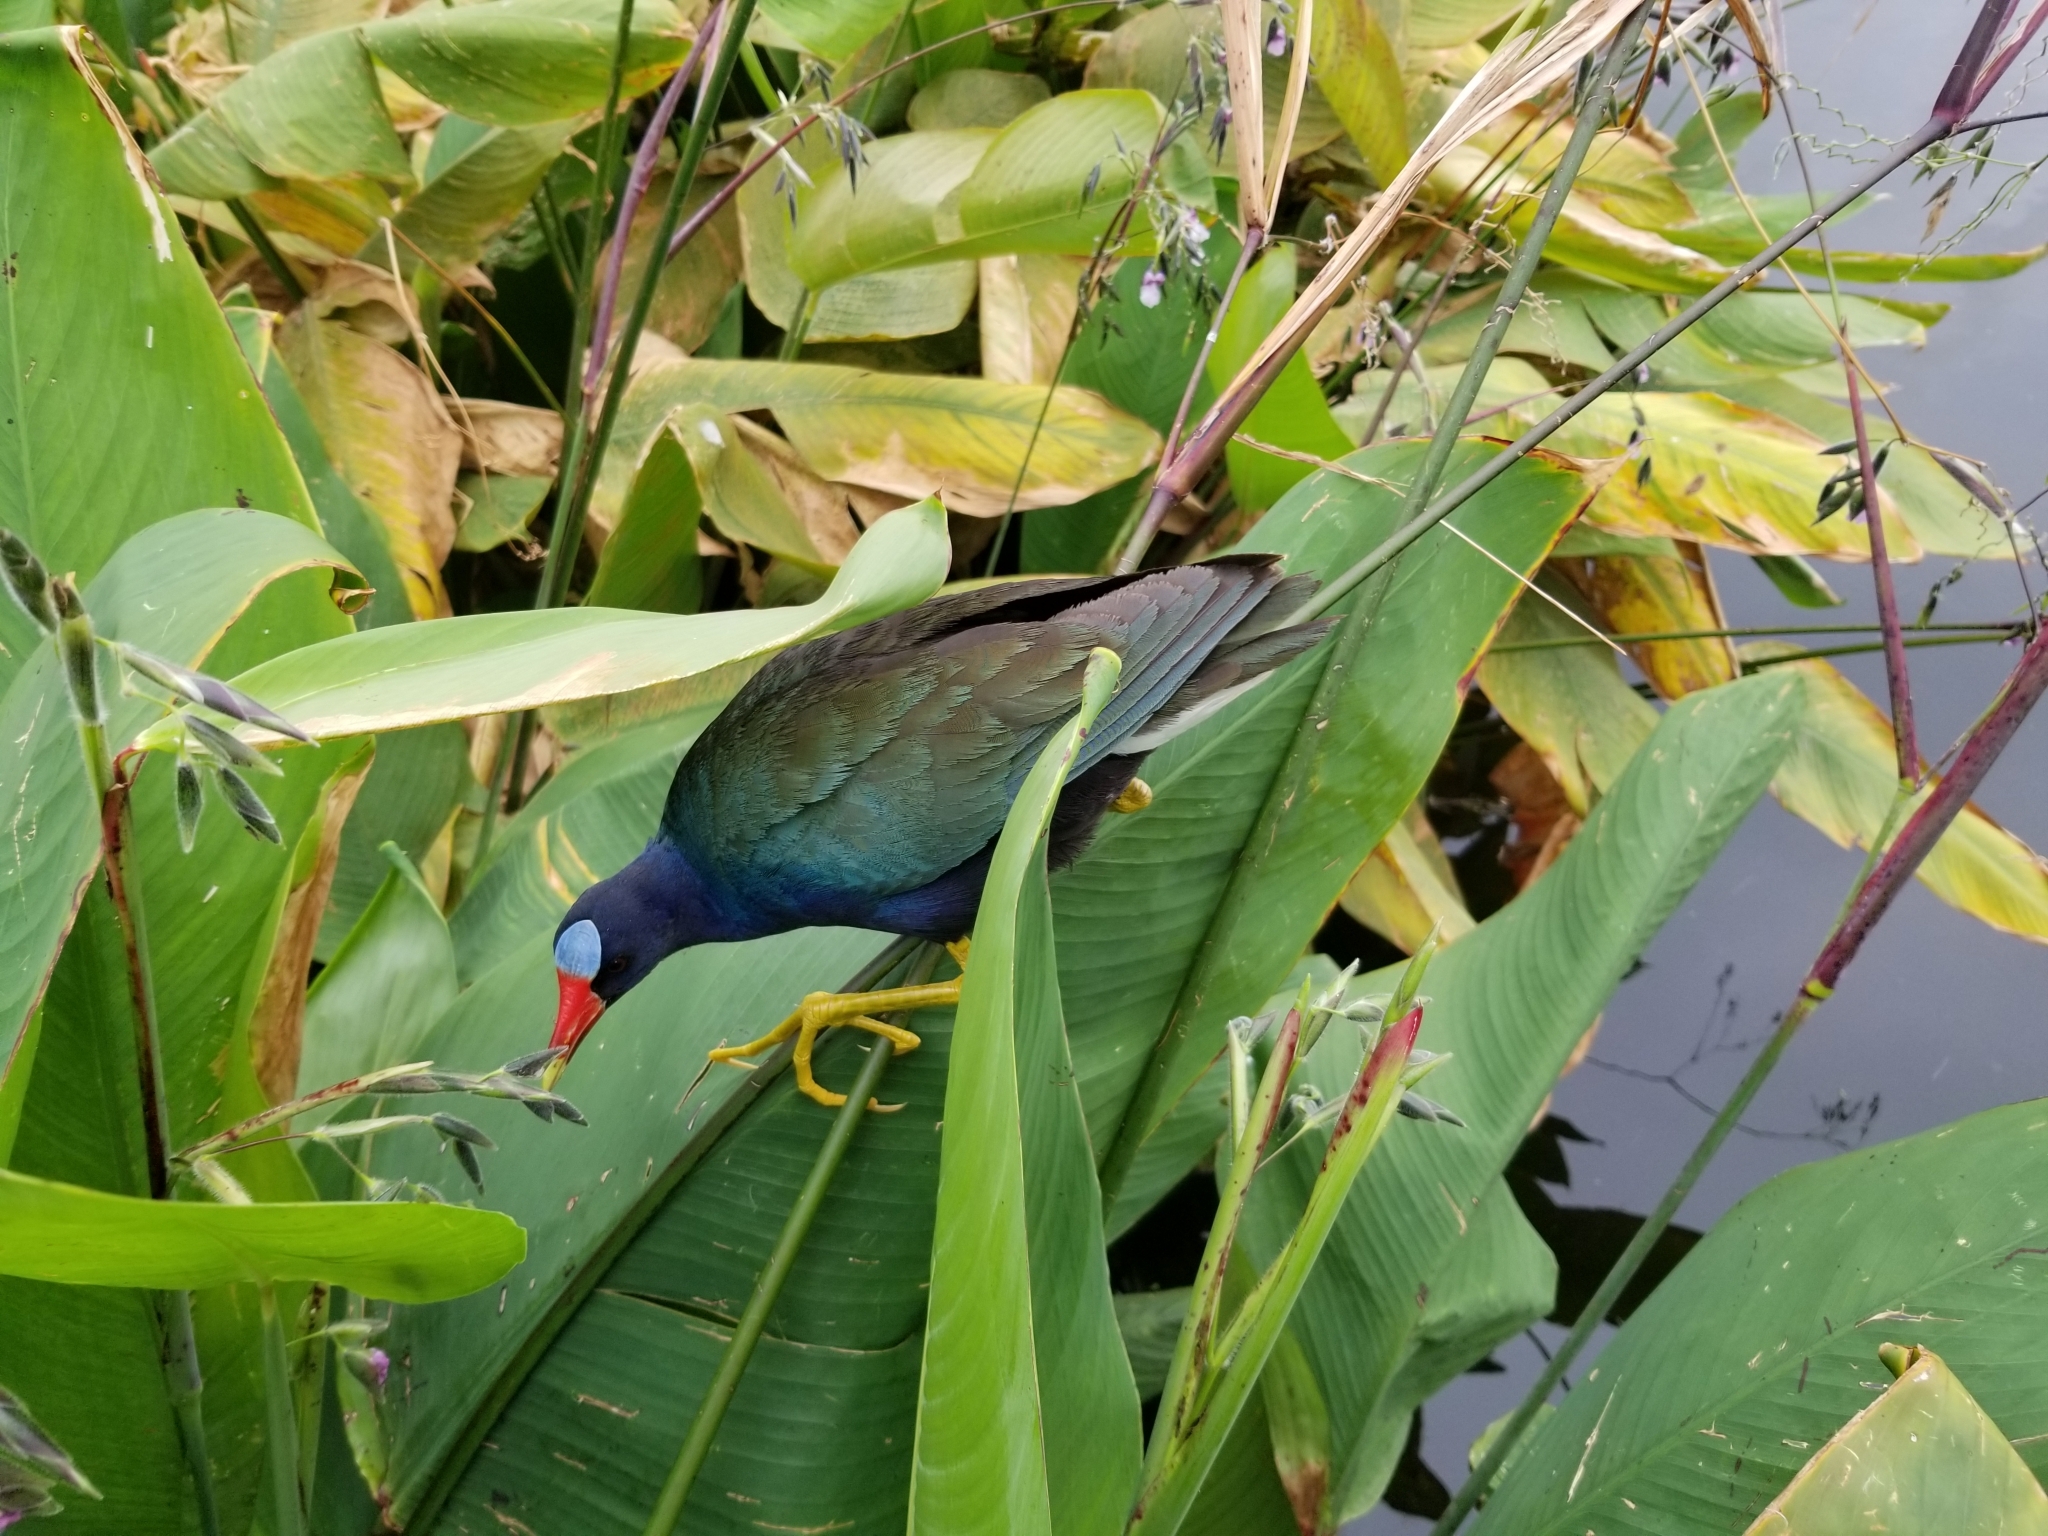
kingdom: Animalia
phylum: Chordata
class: Aves
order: Gruiformes
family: Rallidae
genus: Porphyrio
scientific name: Porphyrio martinica
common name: Purple gallinule
